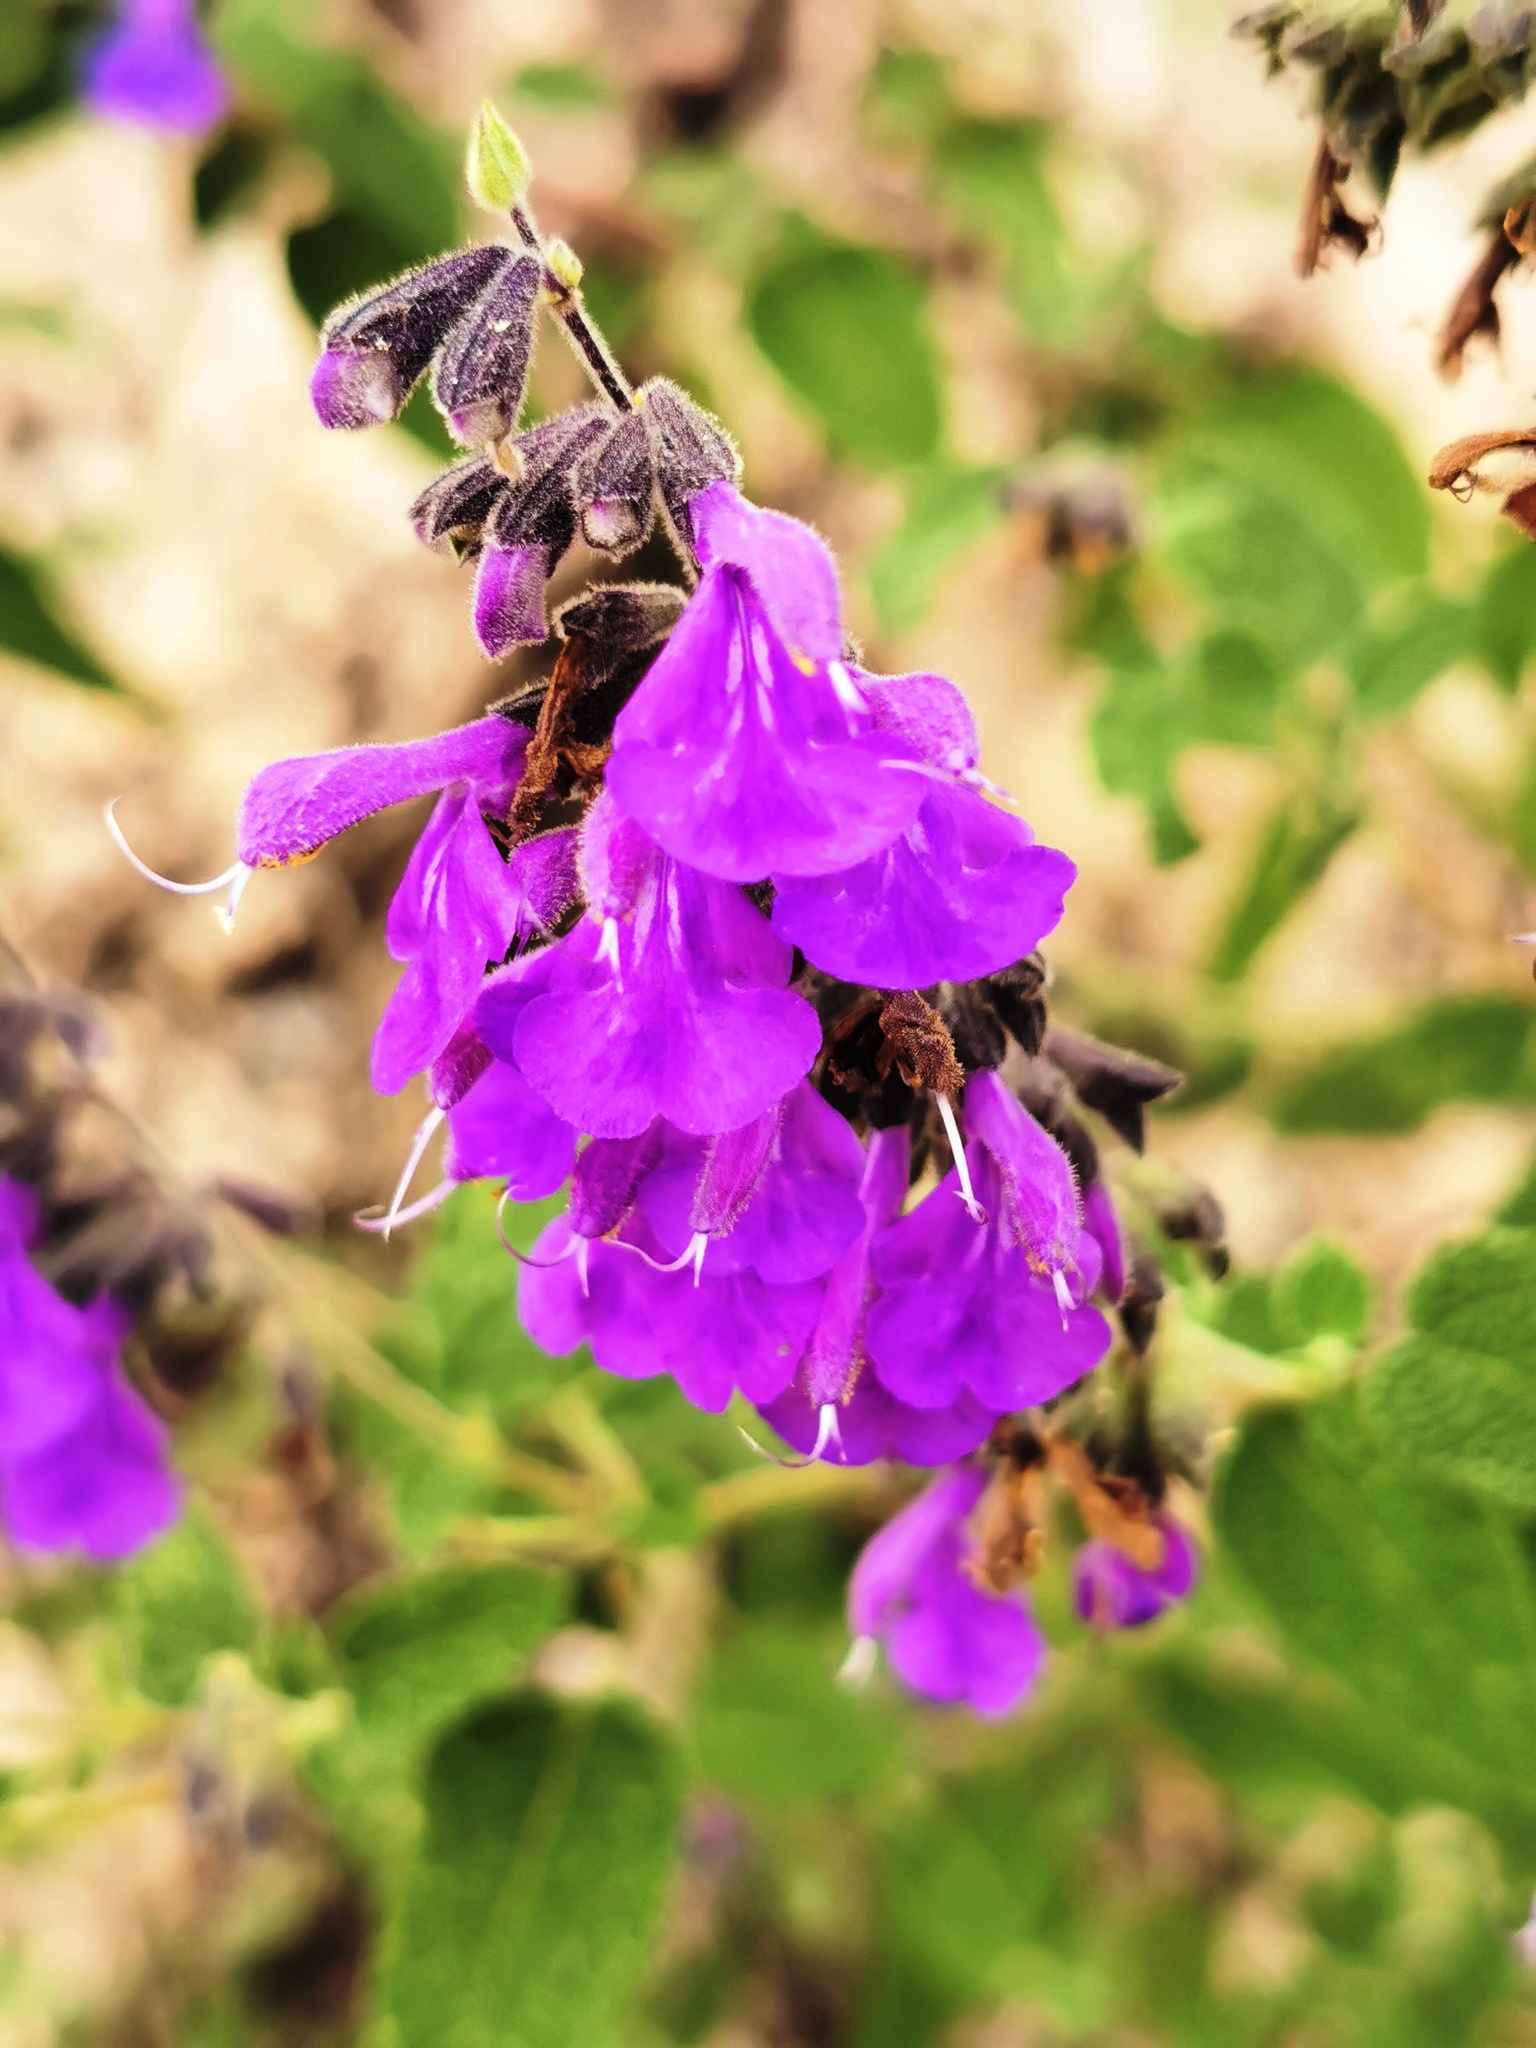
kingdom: Plantae
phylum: Tracheophyta
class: Magnoliopsida
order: Lamiales
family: Lamiaceae
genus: Salvia
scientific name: Salvia melissodora
